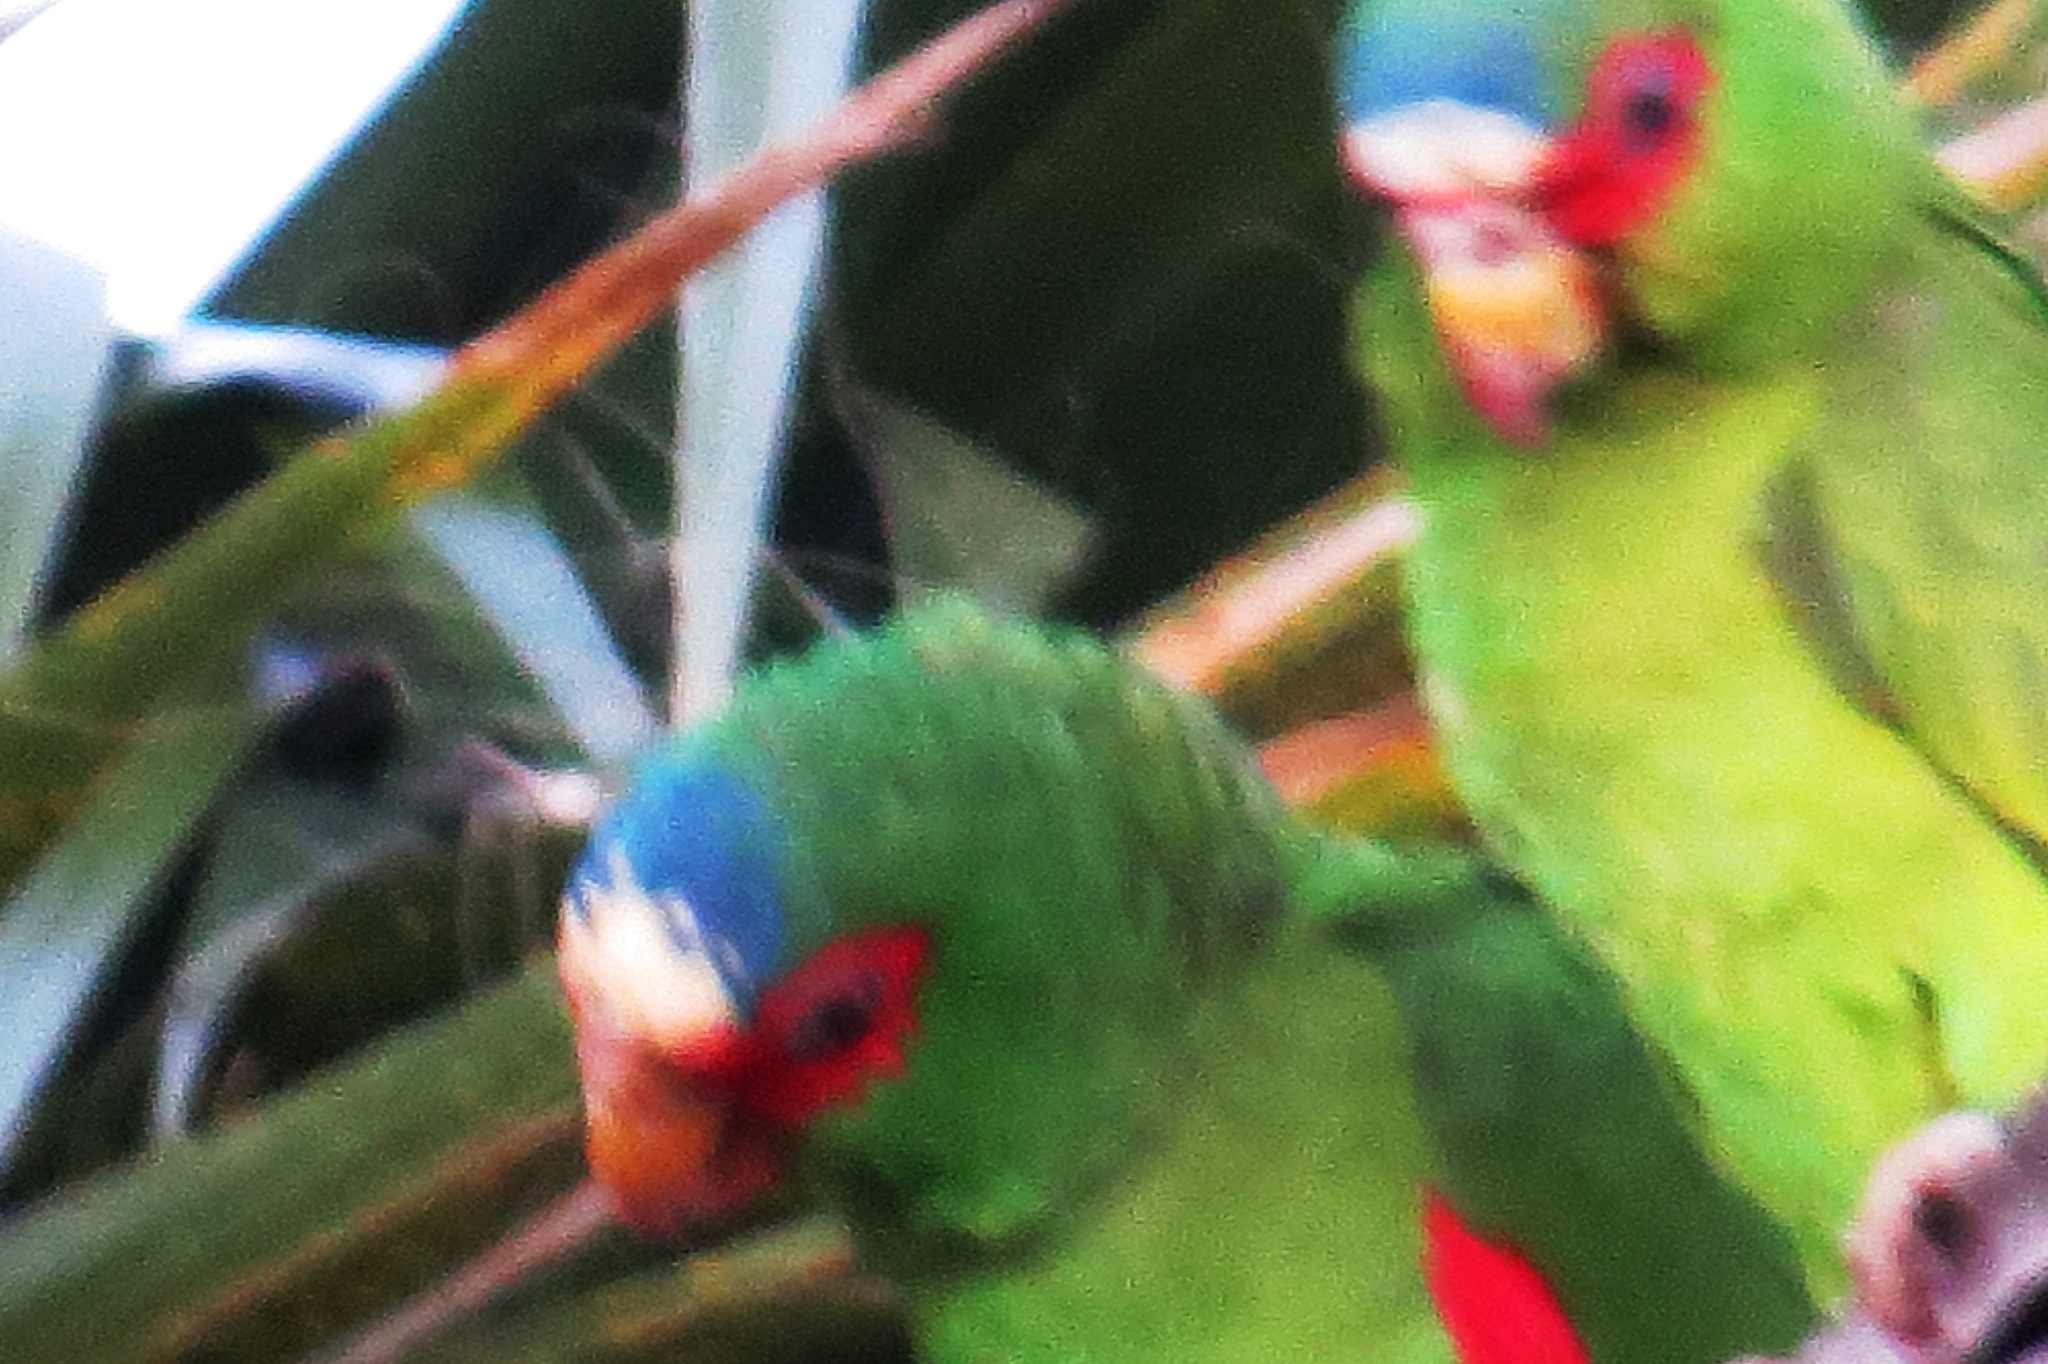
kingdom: Animalia
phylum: Chordata
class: Aves
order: Psittaciformes
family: Psittacidae
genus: Amazona
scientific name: Amazona albifrons
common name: White-fronted amazon
